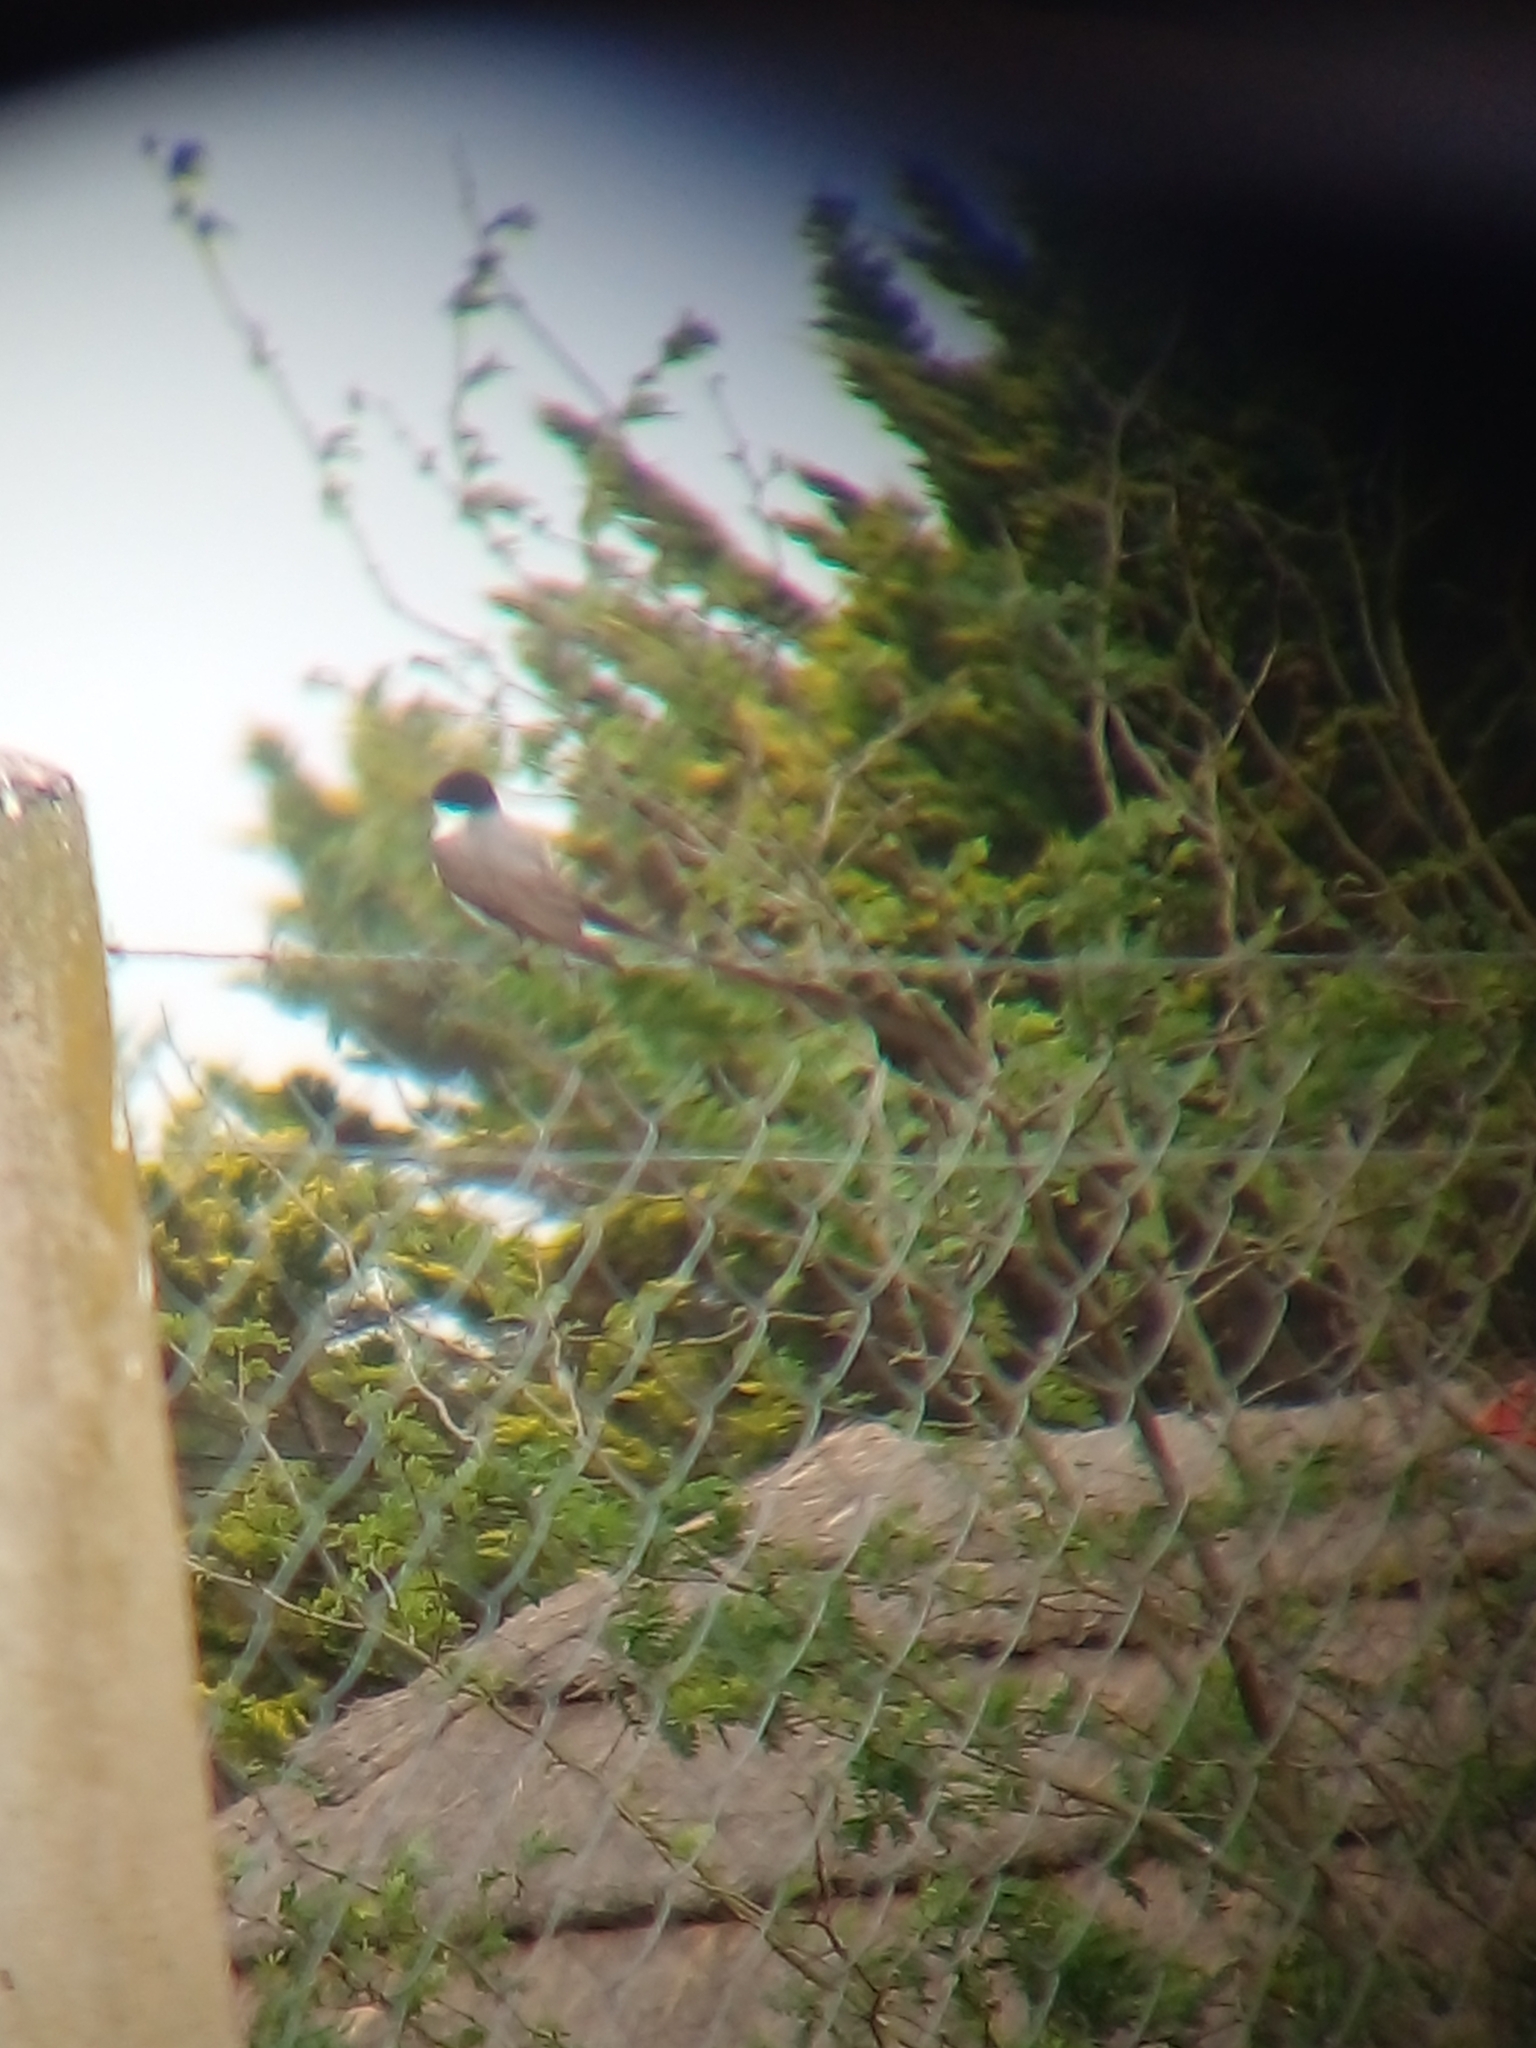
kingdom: Animalia
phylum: Chordata
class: Aves
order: Passeriformes
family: Tyrannidae
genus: Tyrannus
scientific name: Tyrannus savana
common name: Fork-tailed flycatcher
